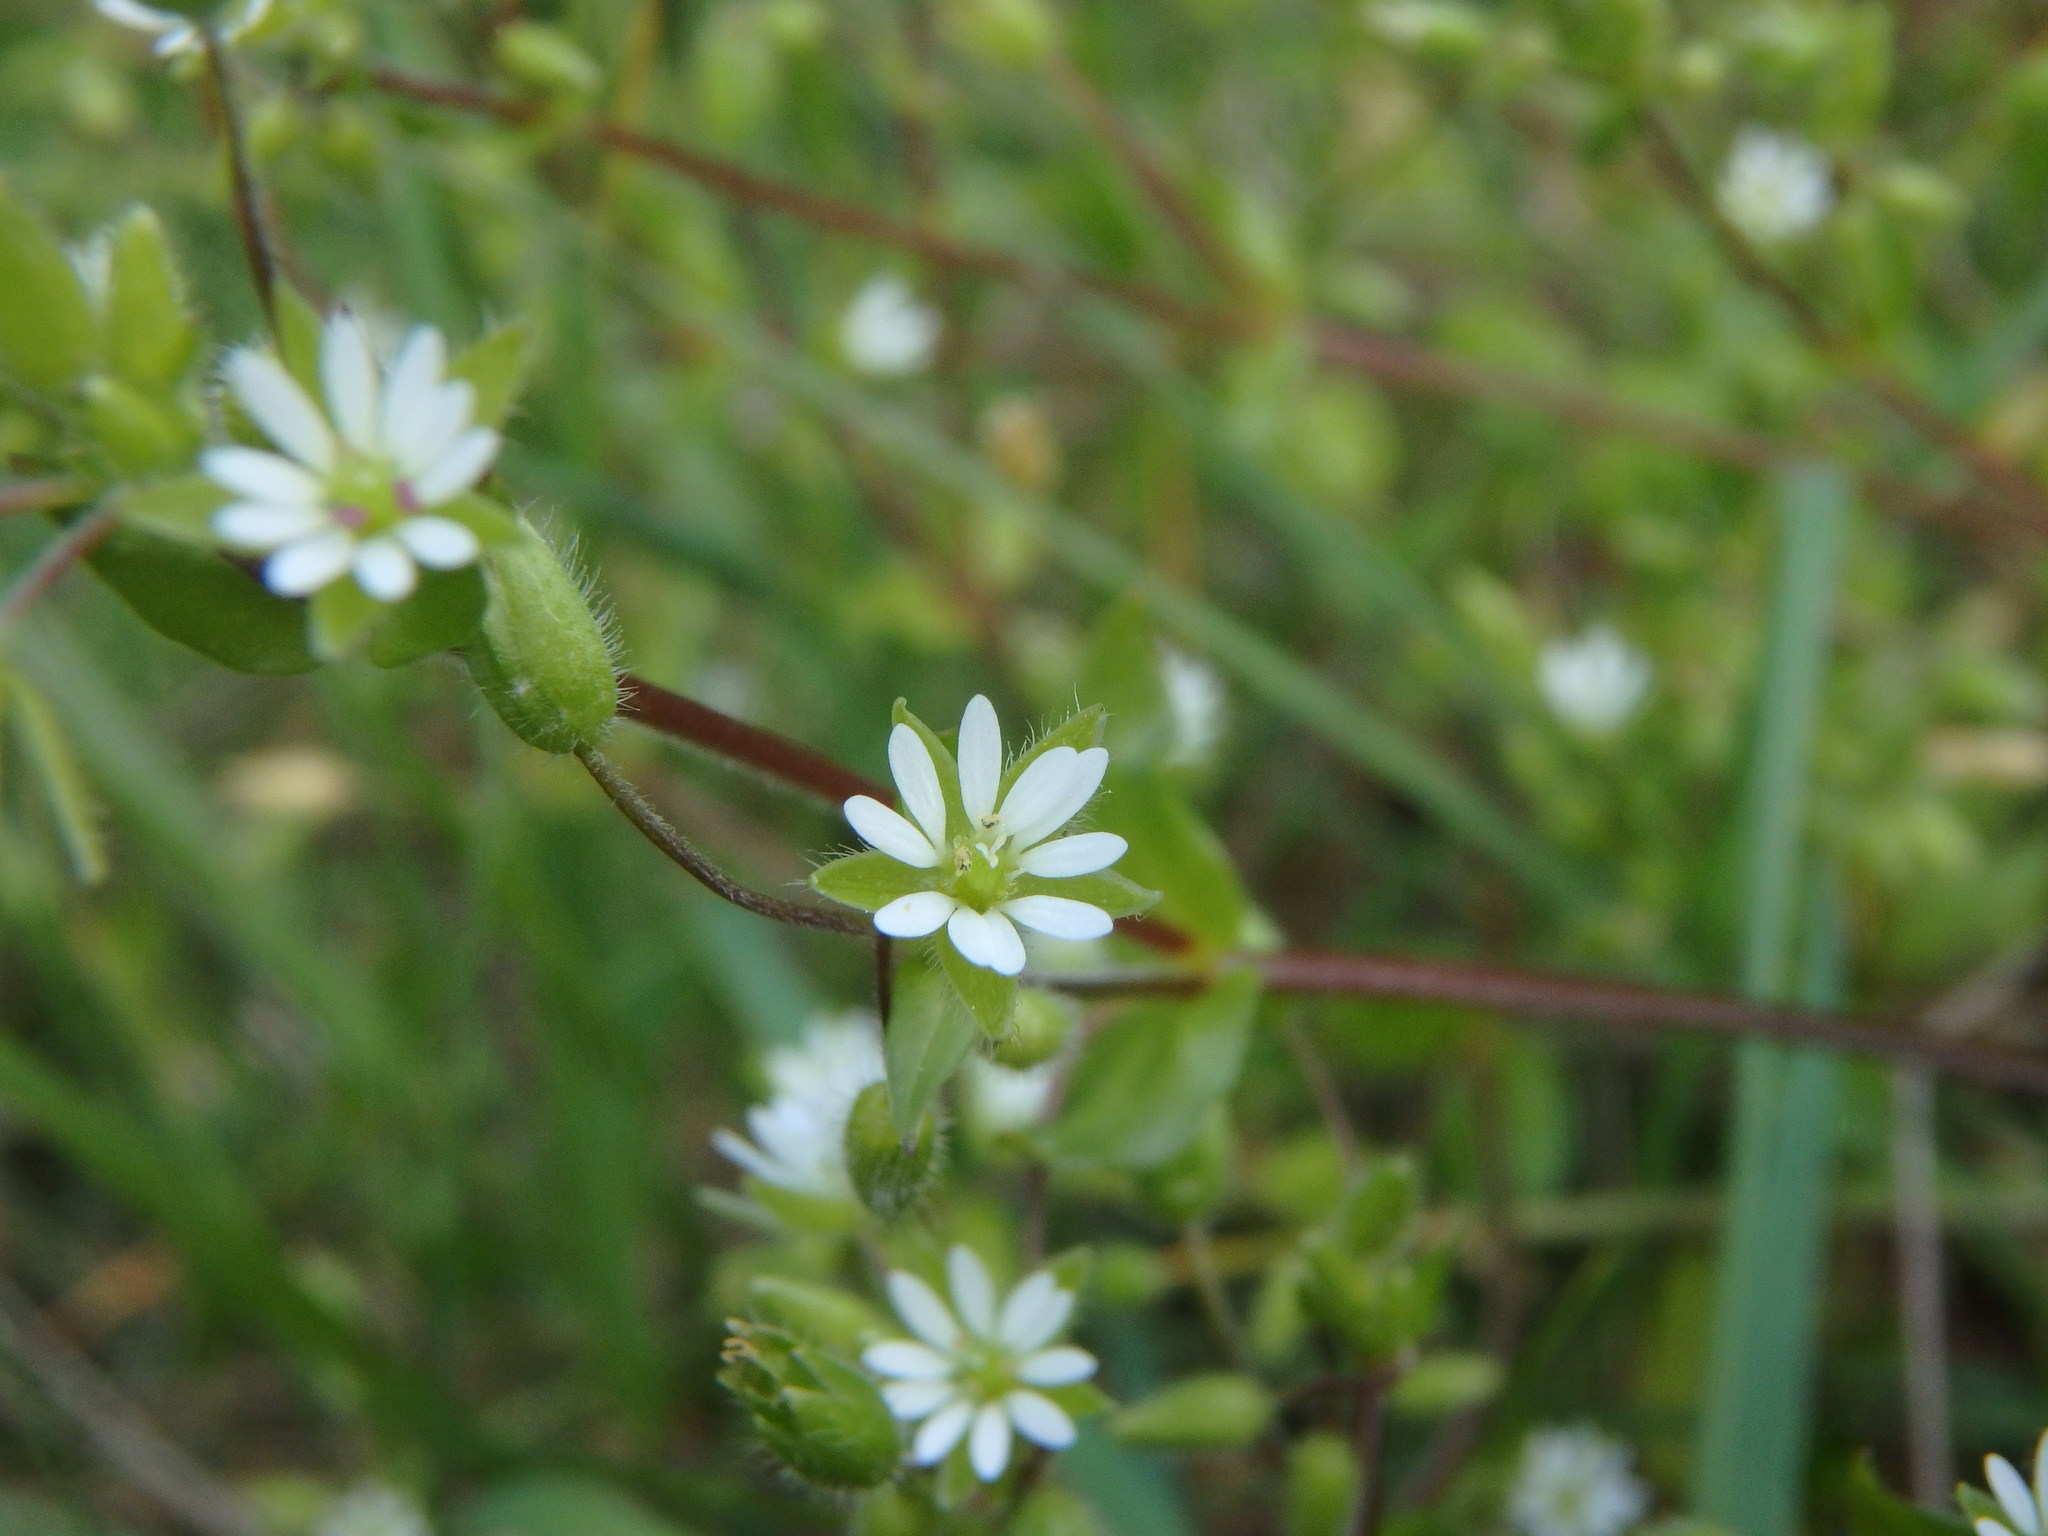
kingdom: Plantae
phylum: Tracheophyta
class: Magnoliopsida
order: Caryophyllales
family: Caryophyllaceae
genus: Stellaria
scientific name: Stellaria media
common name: Common chickweed
